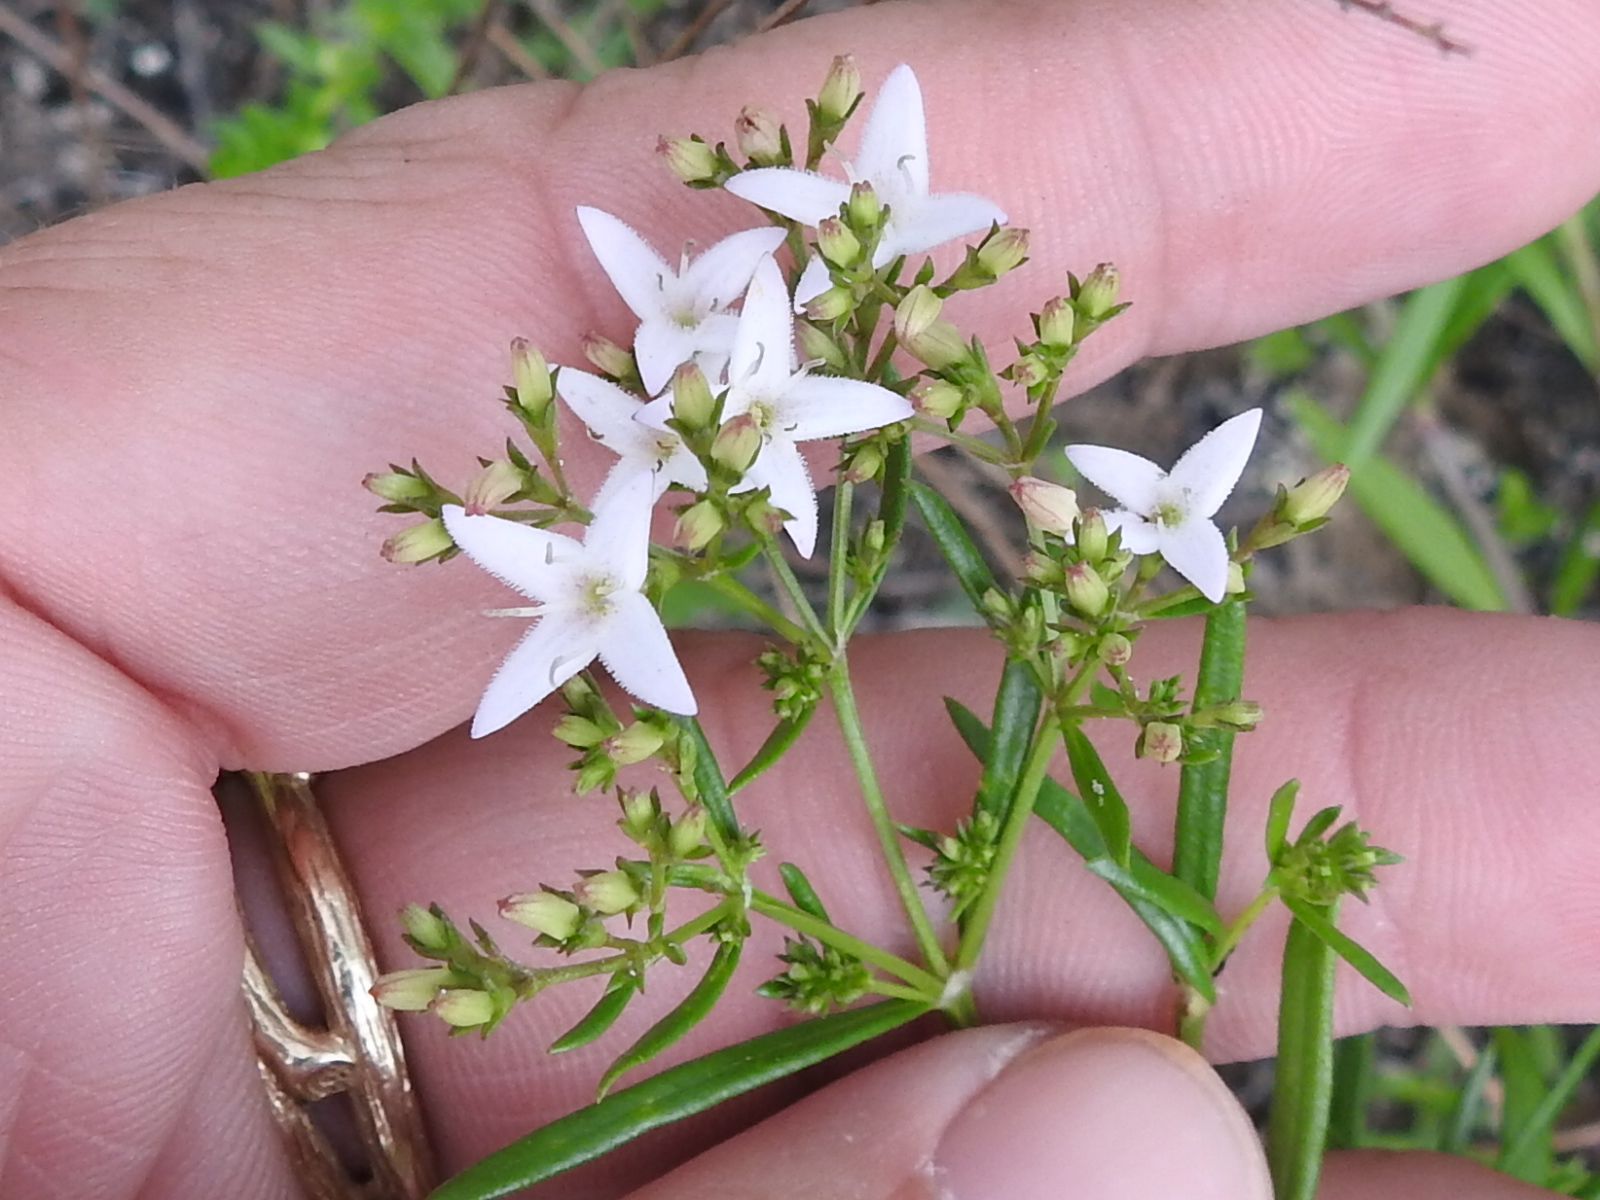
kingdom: Plantae
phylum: Tracheophyta
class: Magnoliopsida
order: Gentianales
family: Rubiaceae
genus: Stenaria
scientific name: Stenaria nigricans
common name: Diamondflowers
